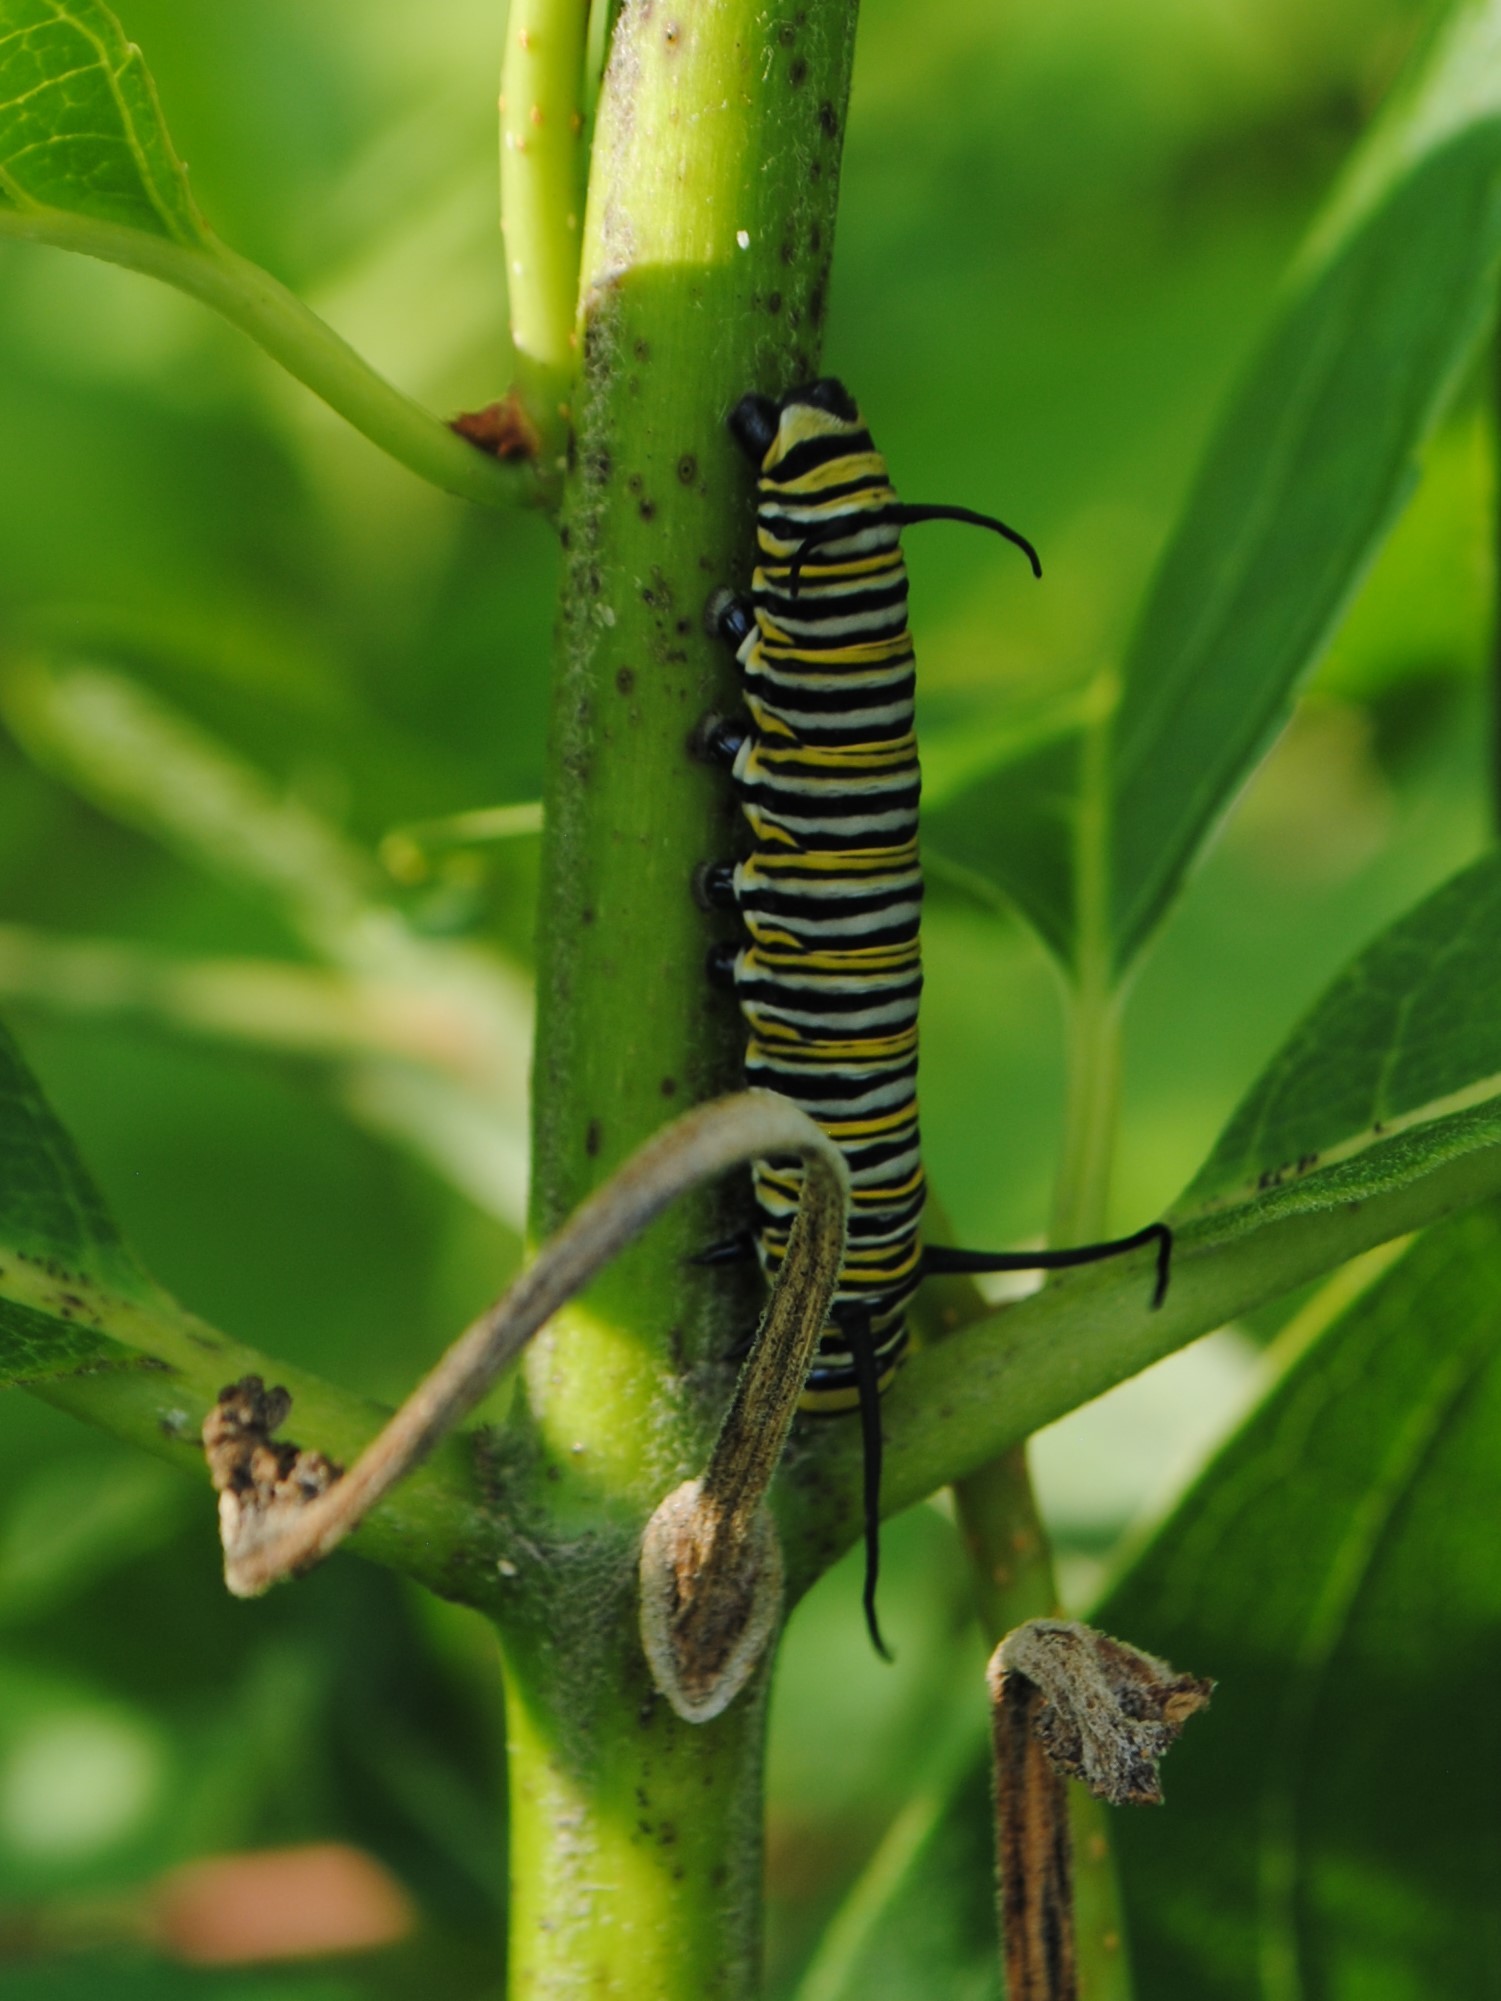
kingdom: Animalia
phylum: Arthropoda
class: Insecta
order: Lepidoptera
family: Nymphalidae
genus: Danaus
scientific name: Danaus plexippus
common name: Monarch
